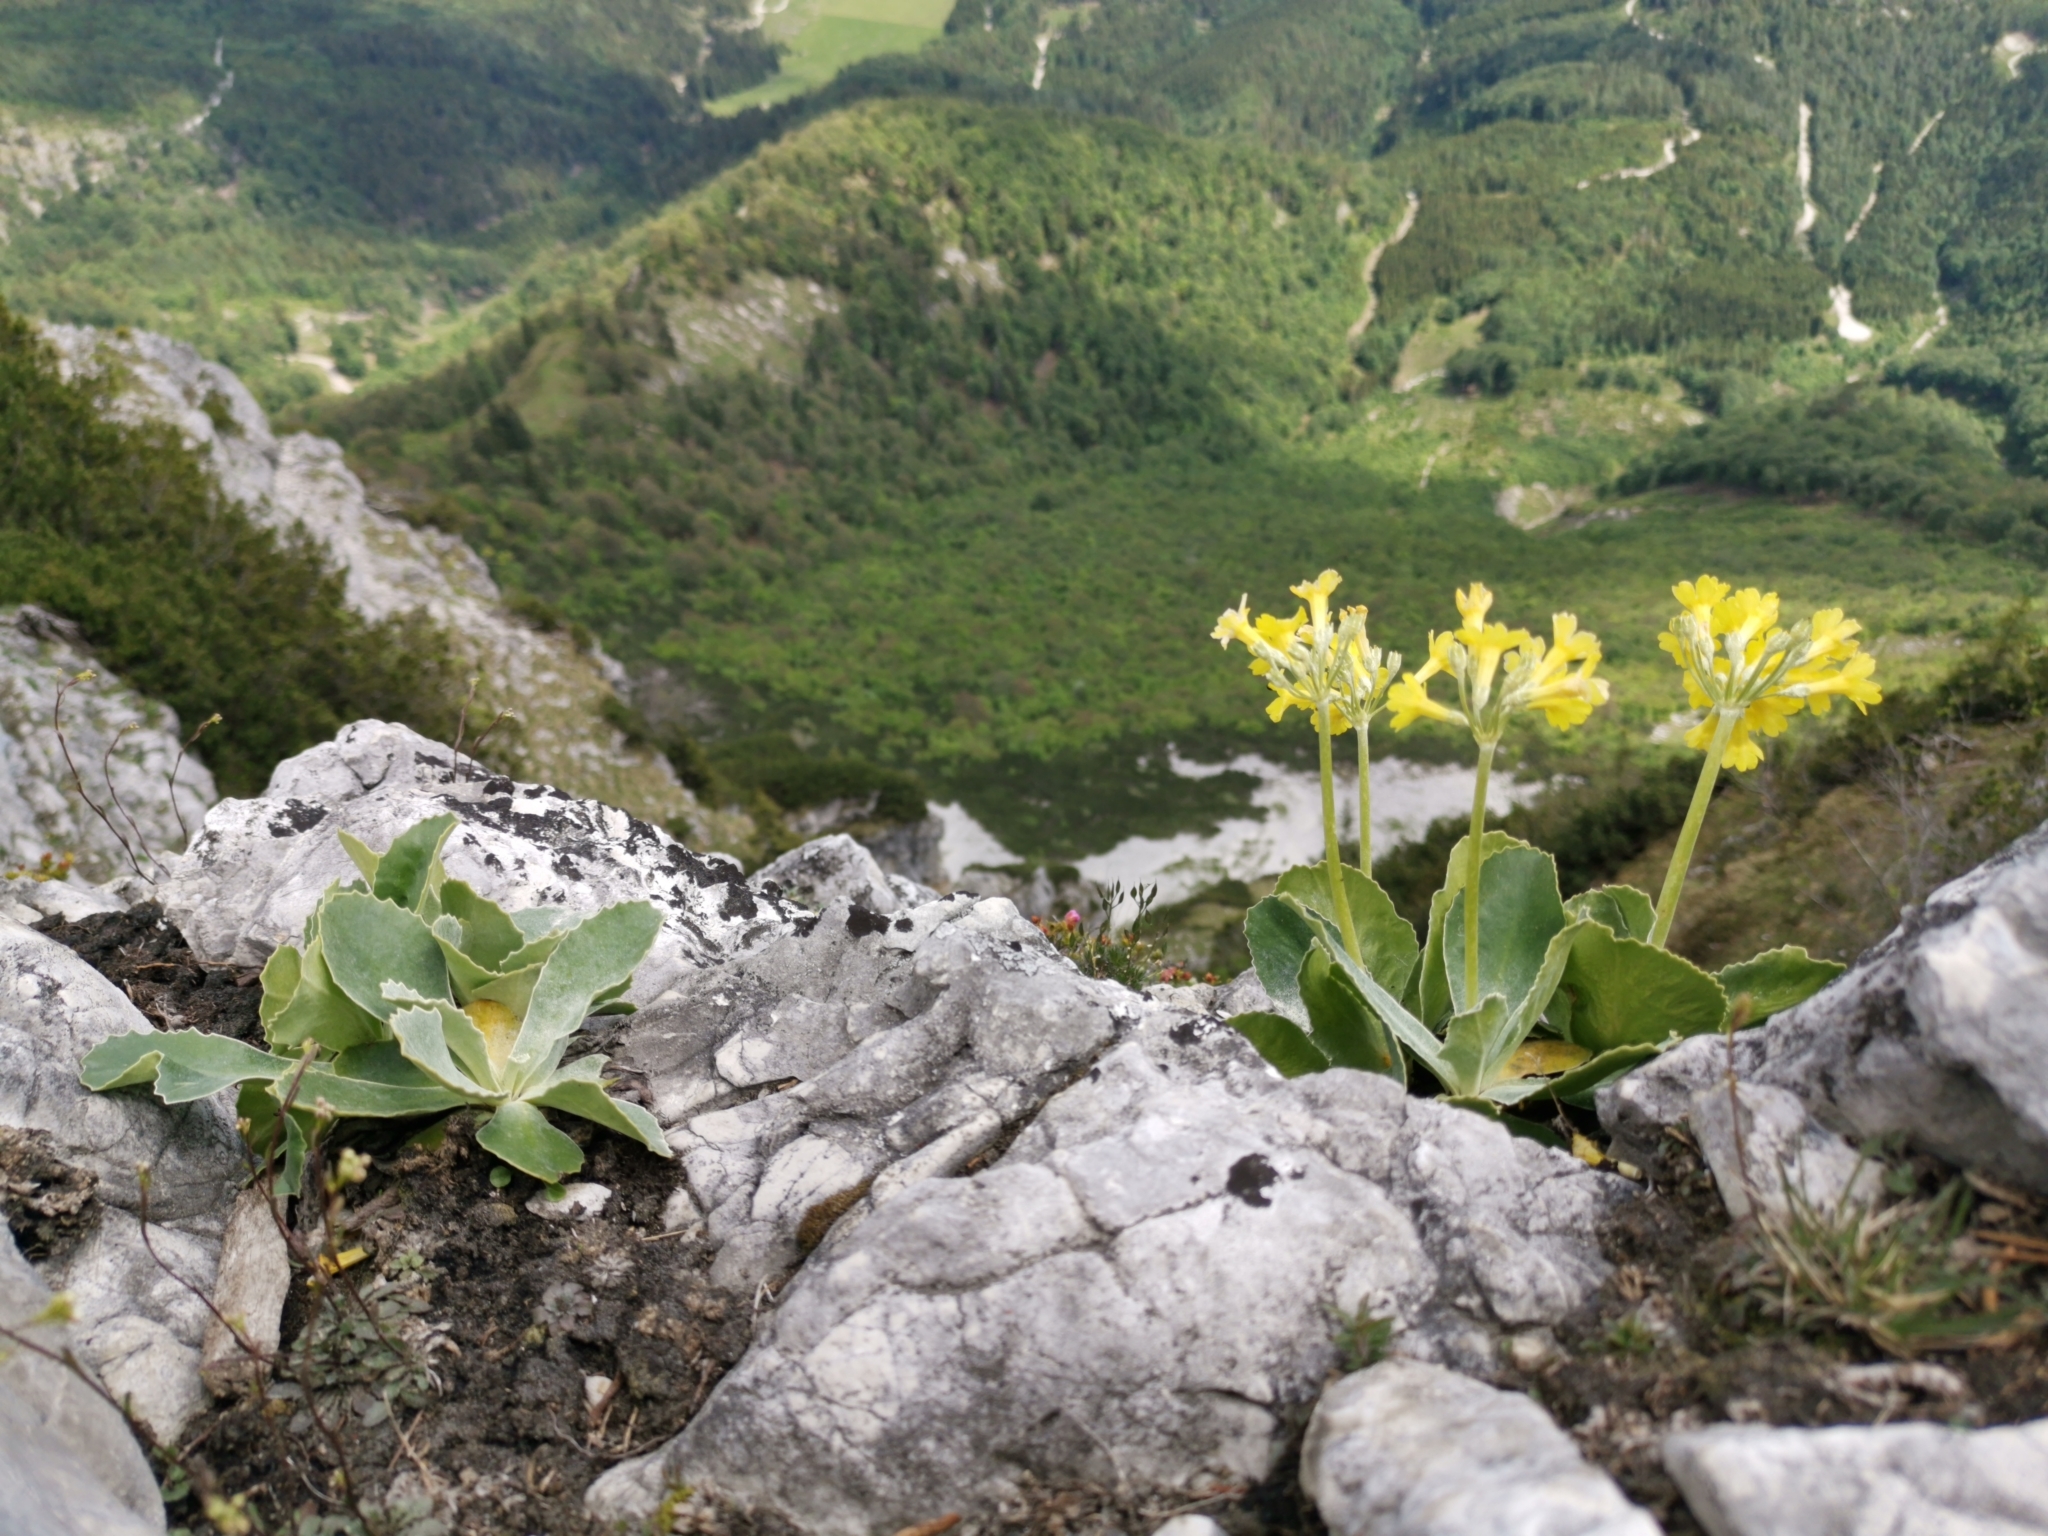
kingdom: Plantae
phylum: Tracheophyta
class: Magnoliopsida
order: Ericales
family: Primulaceae
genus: Primula
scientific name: Primula auricula
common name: Auricula
